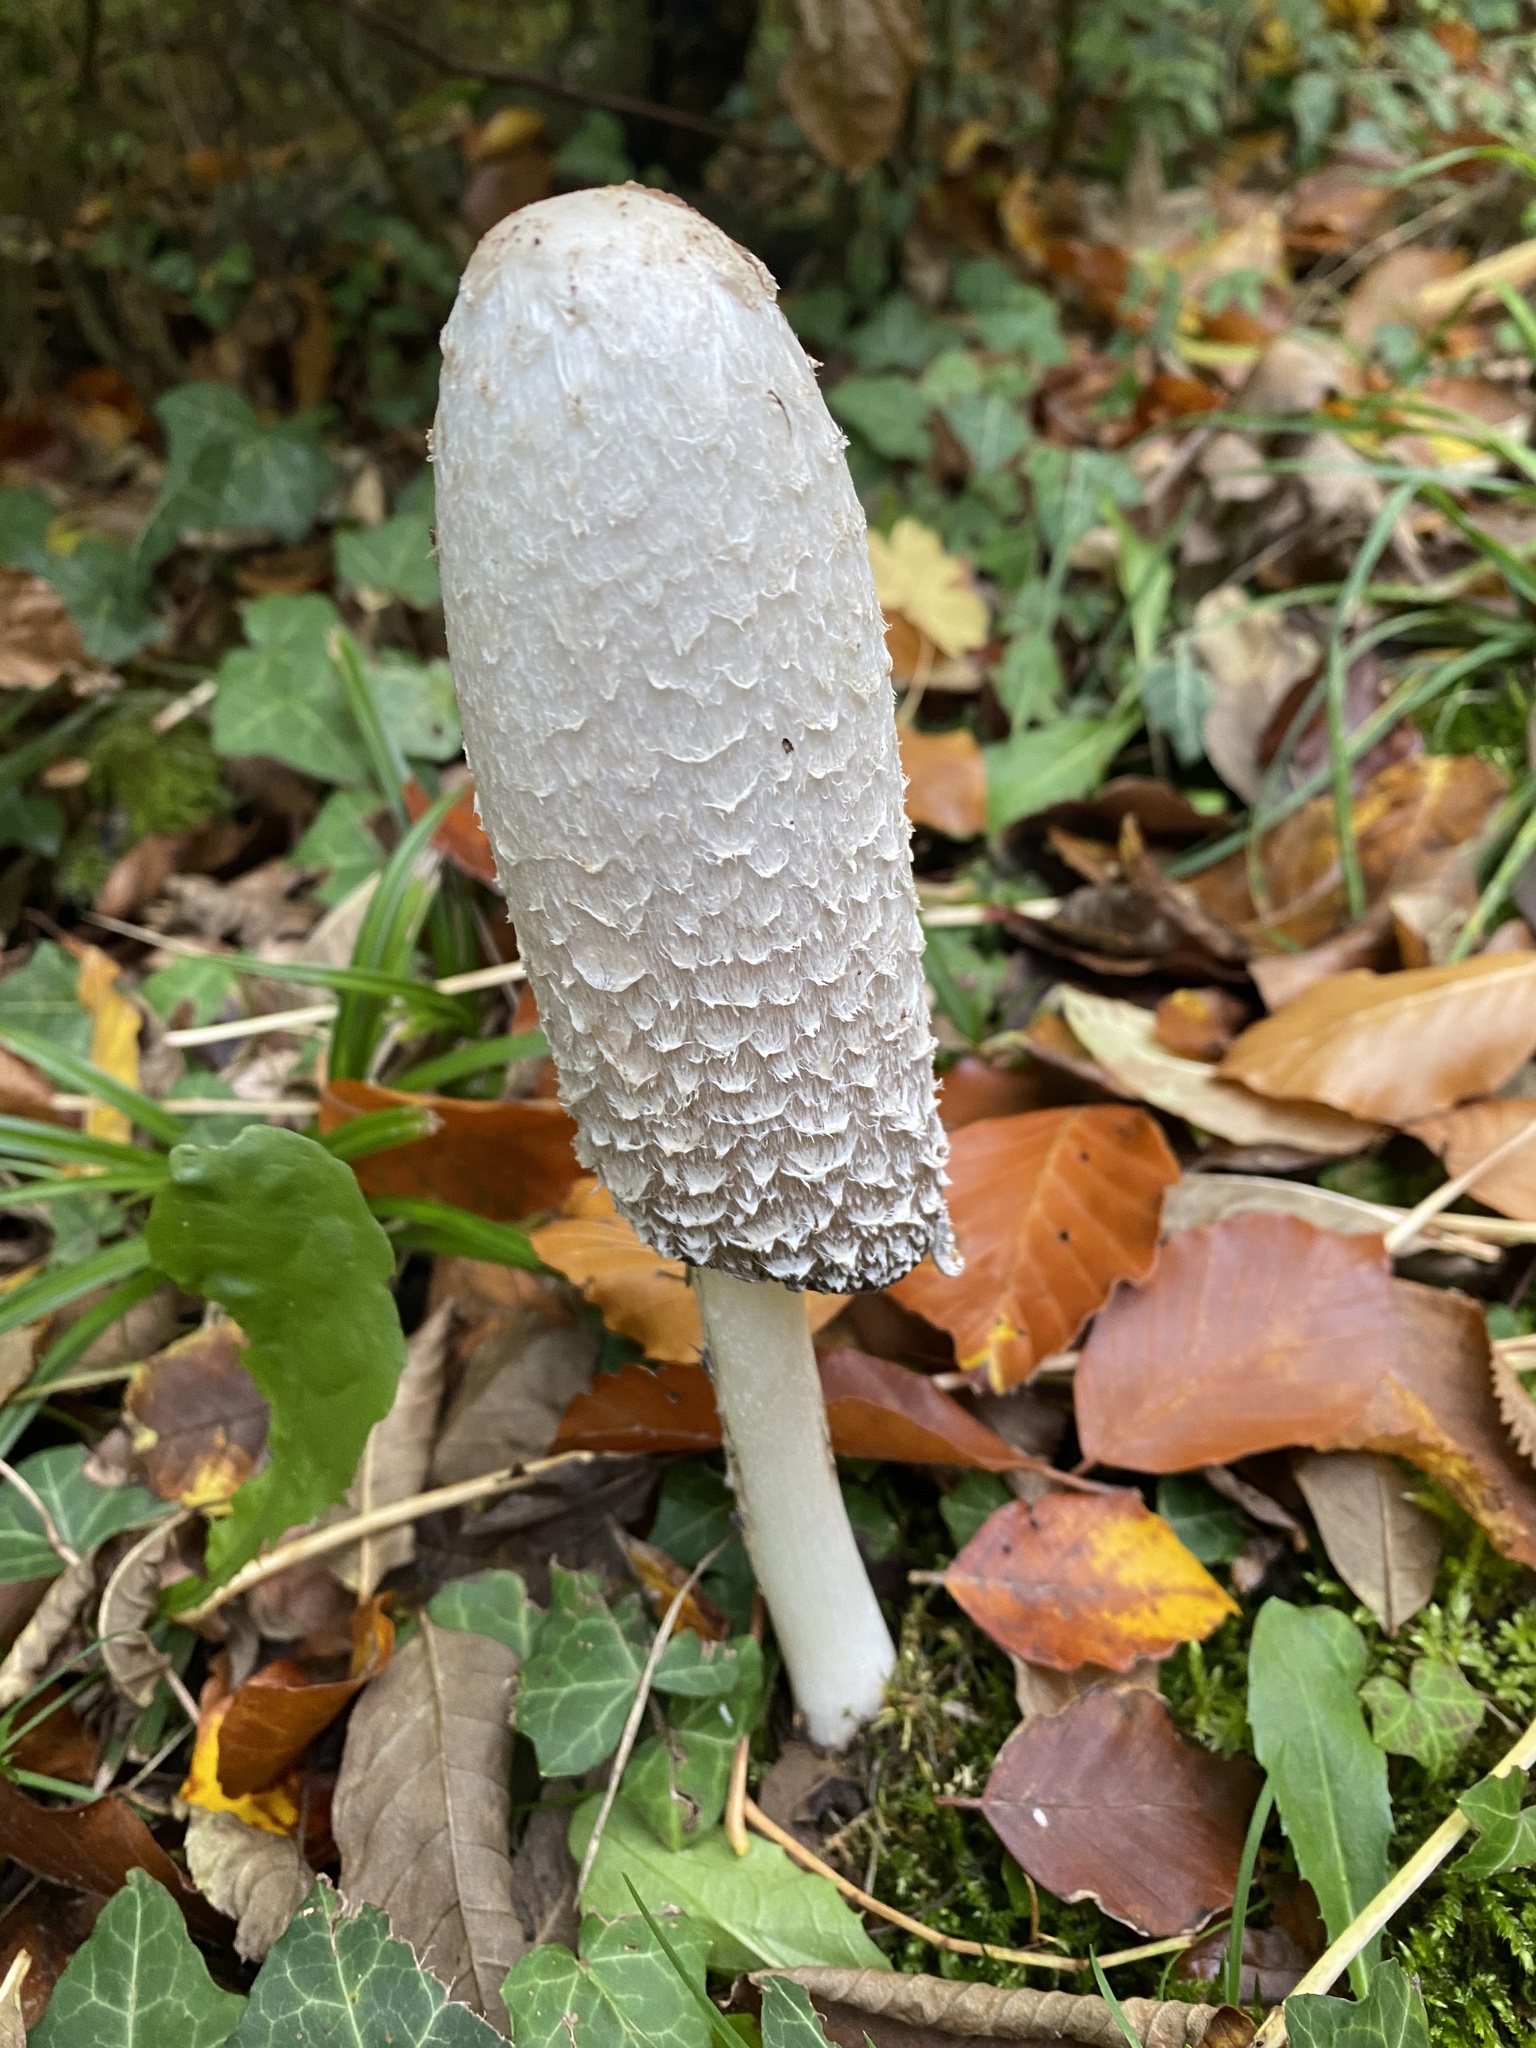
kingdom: Fungi
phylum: Basidiomycota
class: Agaricomycetes
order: Agaricales
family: Agaricaceae
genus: Coprinus
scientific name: Coprinus comatus
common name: Lawyer's wig
